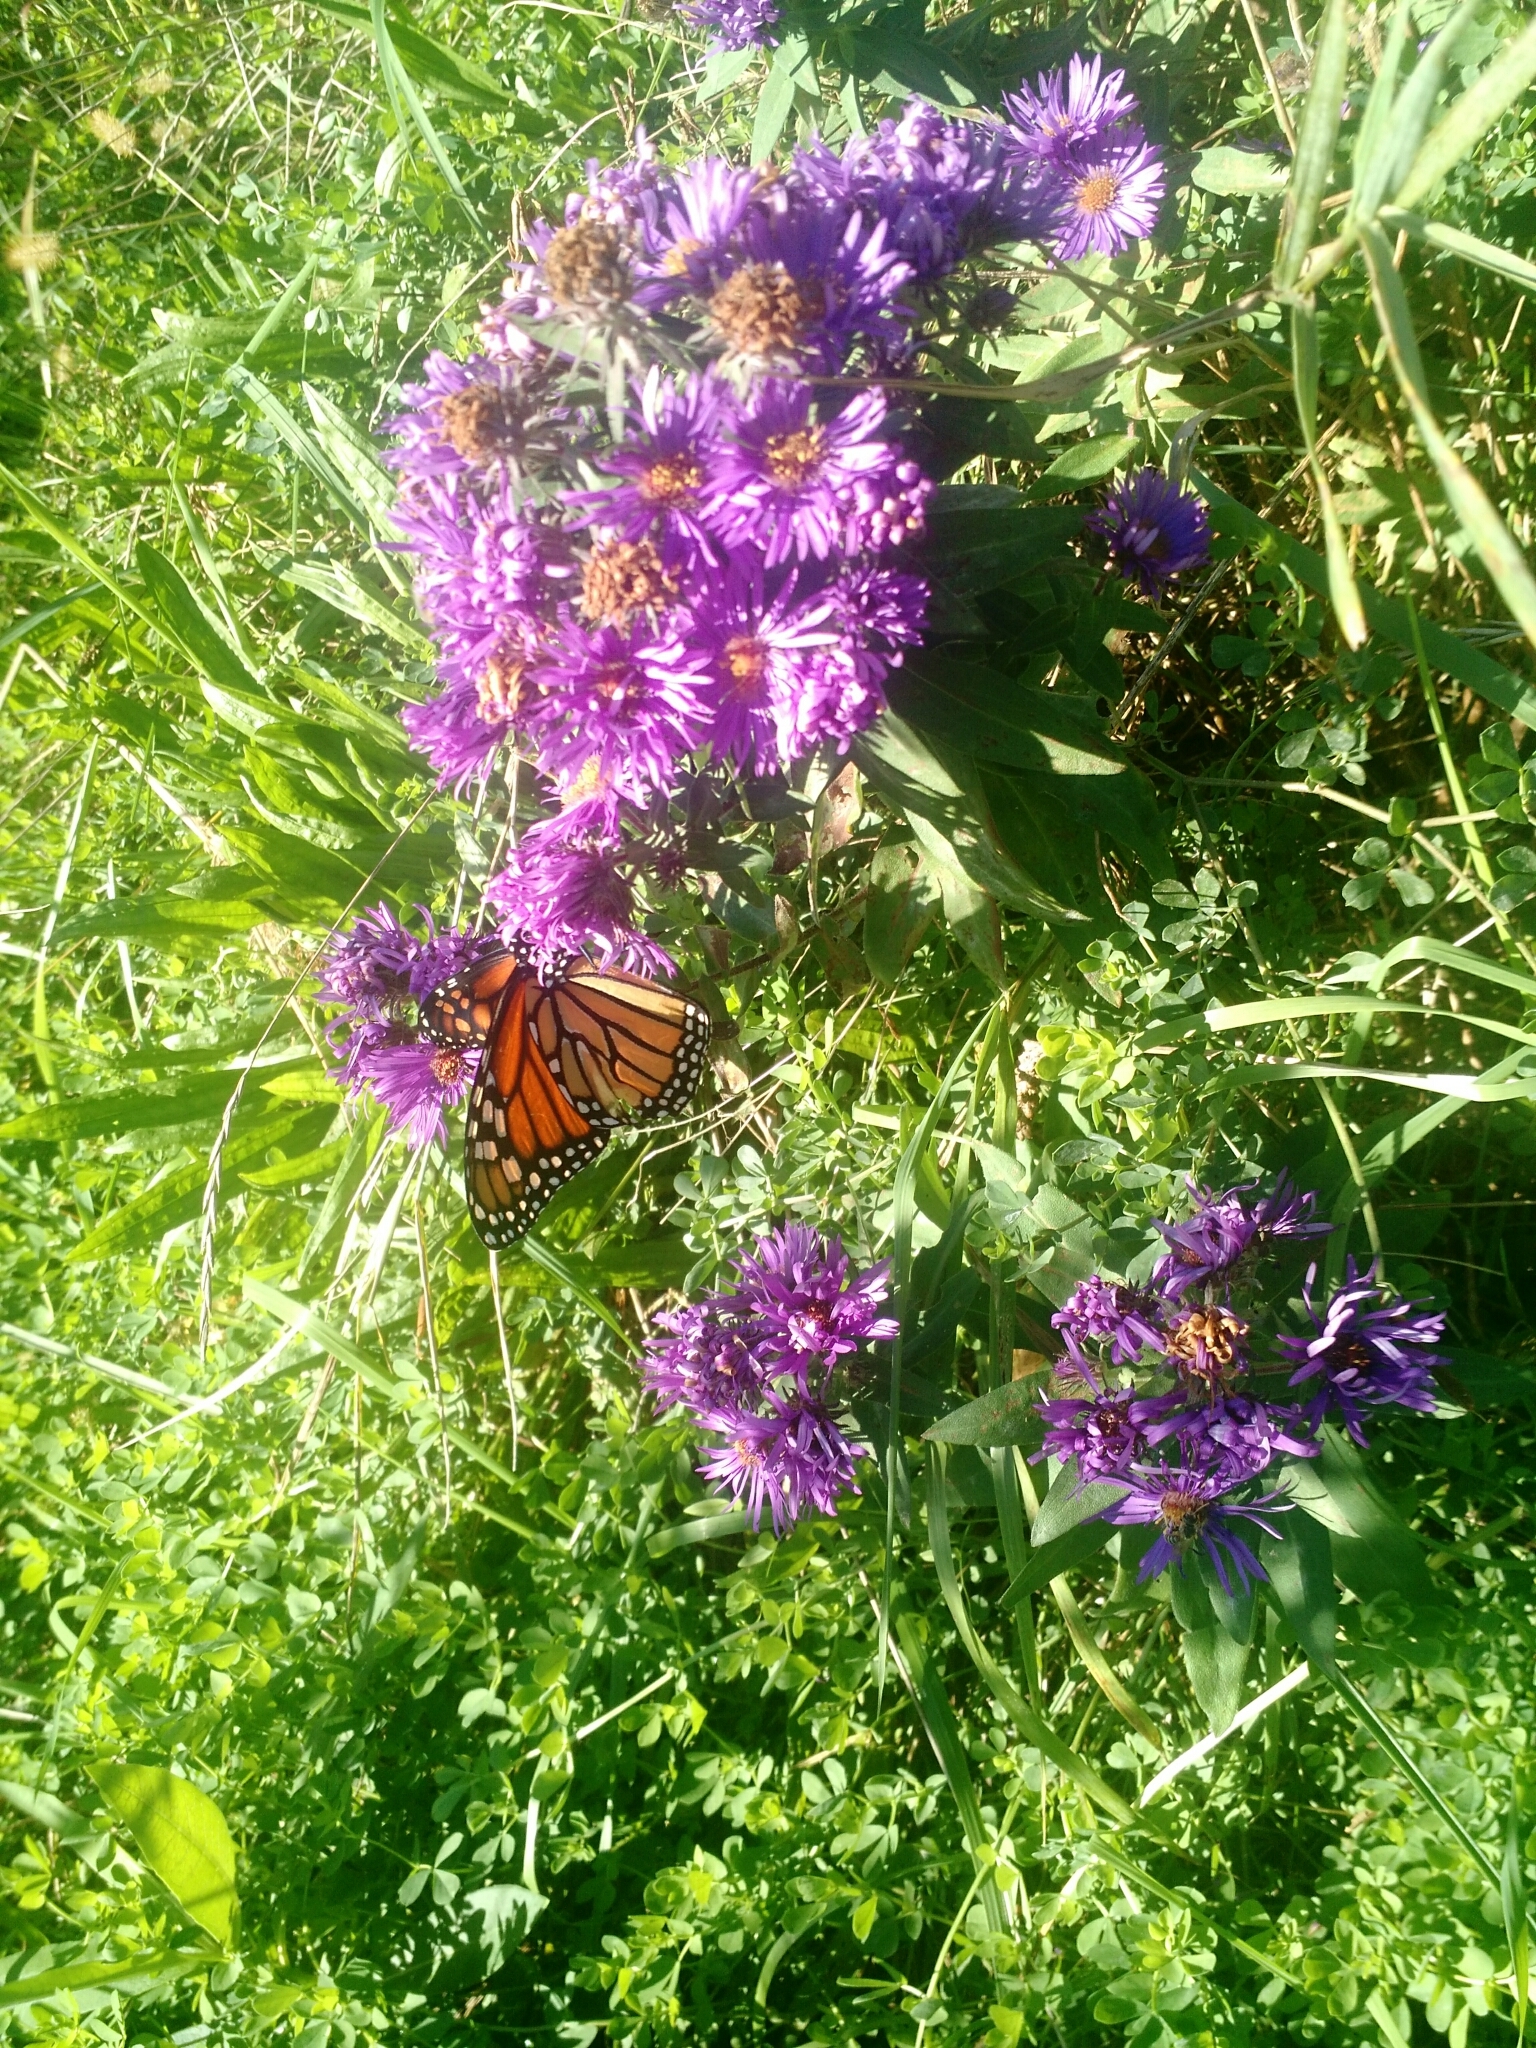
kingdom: Animalia
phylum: Arthropoda
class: Insecta
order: Lepidoptera
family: Nymphalidae
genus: Danaus
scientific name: Danaus plexippus
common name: Monarch
